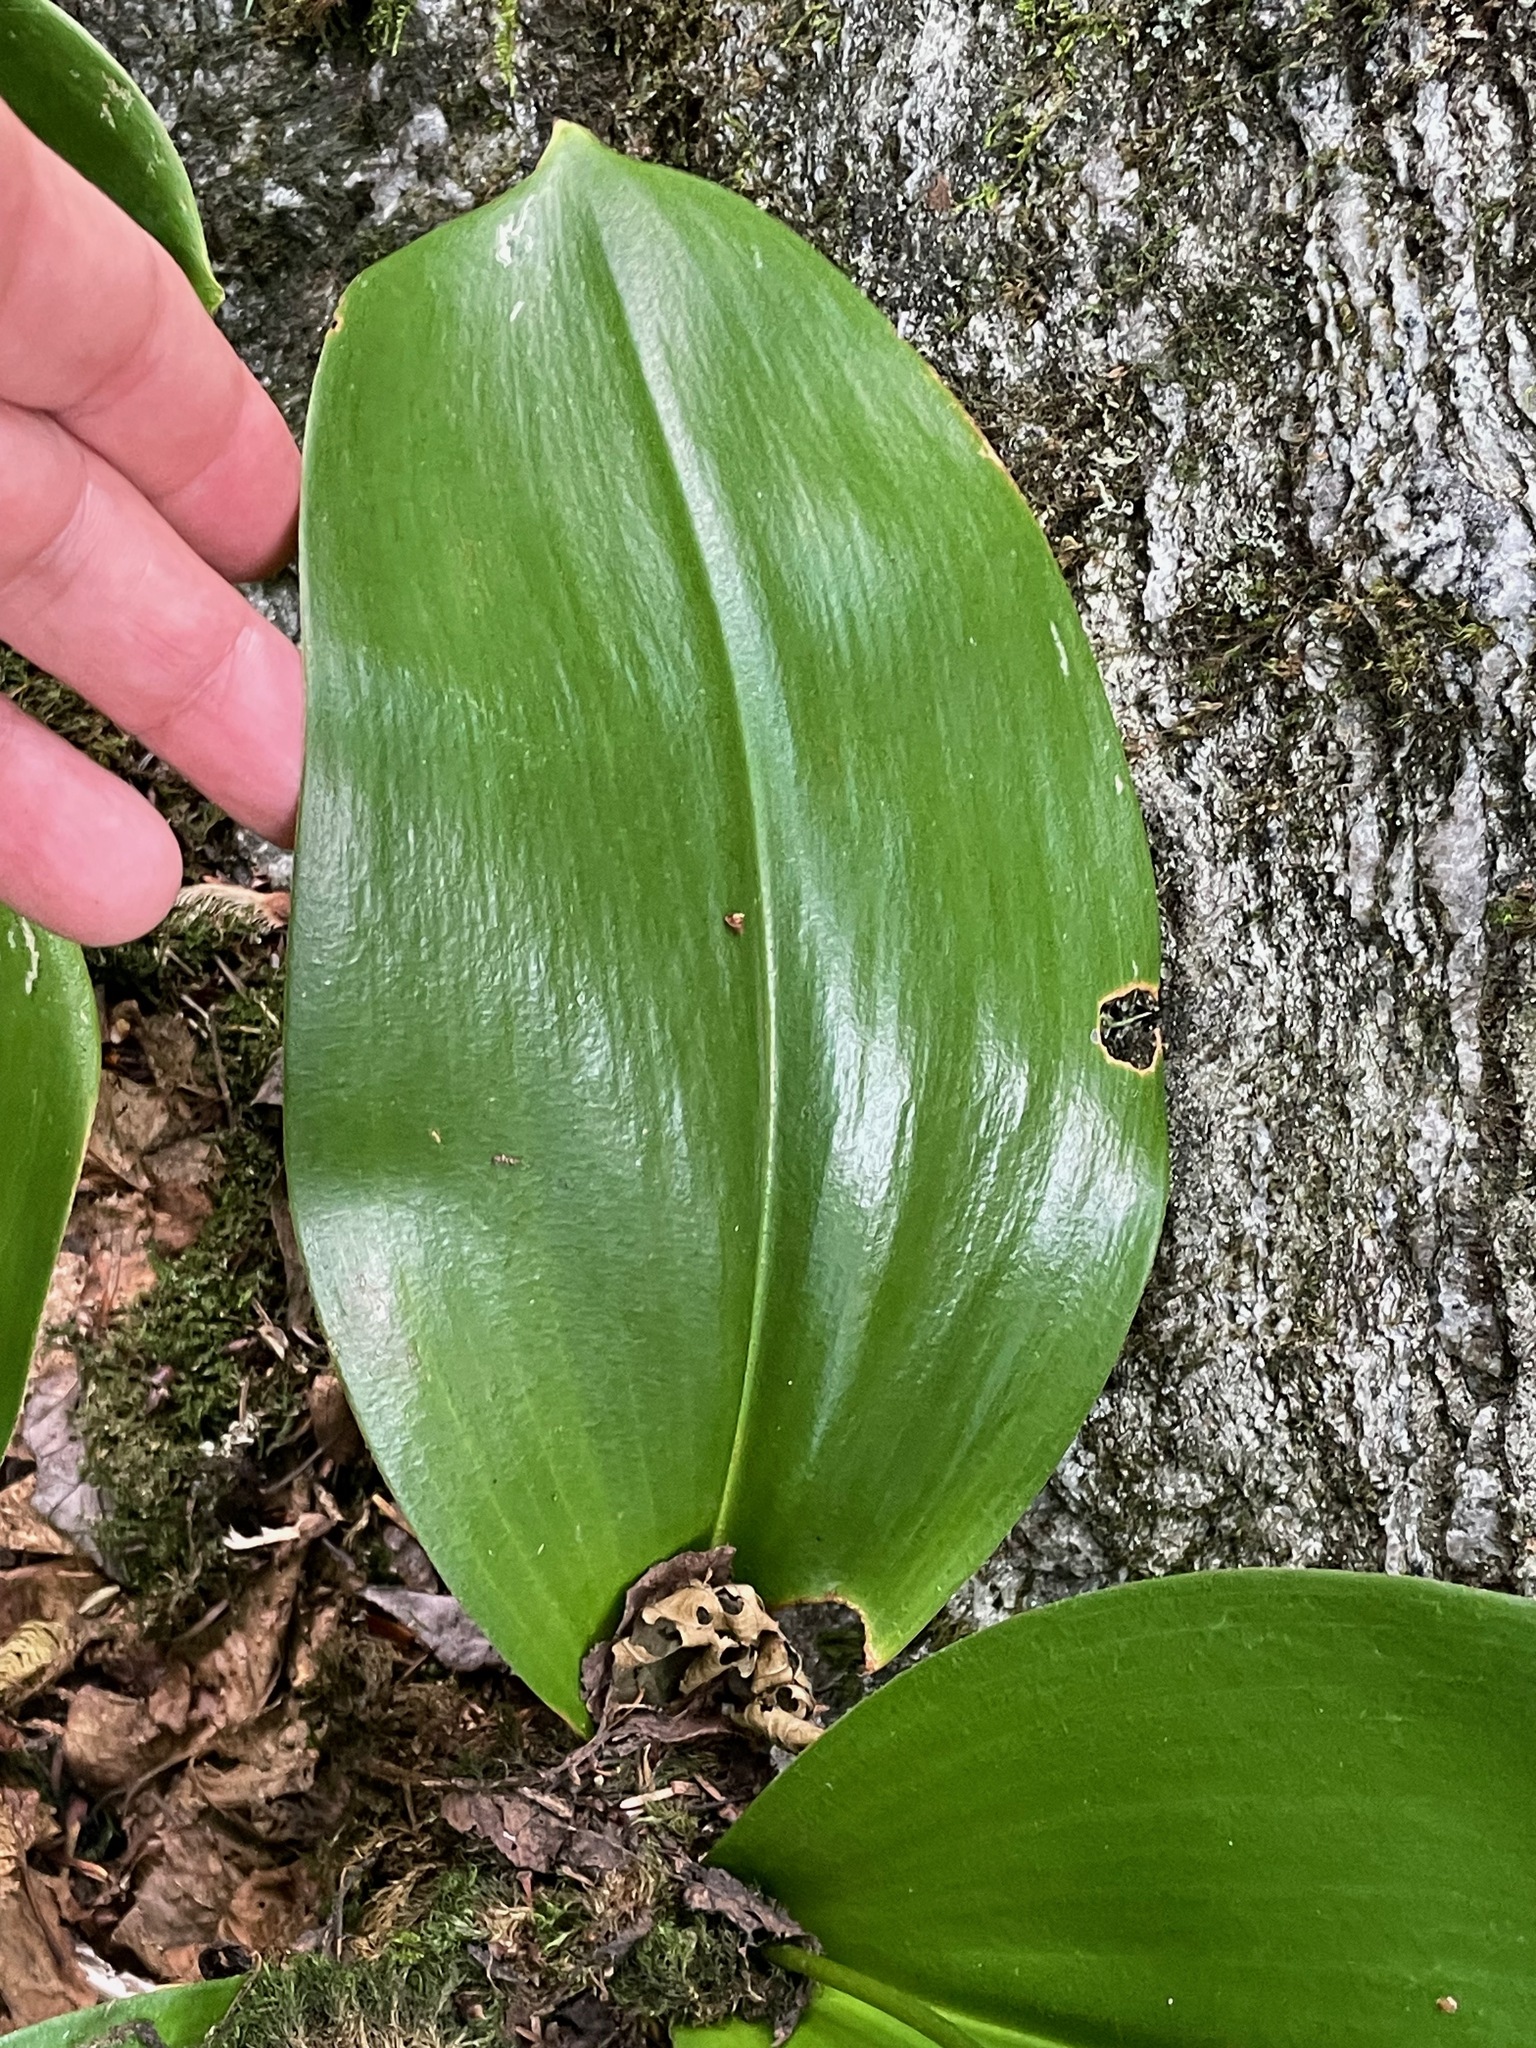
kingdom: Plantae
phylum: Tracheophyta
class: Liliopsida
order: Liliales
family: Liliaceae
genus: Clintonia
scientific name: Clintonia borealis
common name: Yellow clintonia
